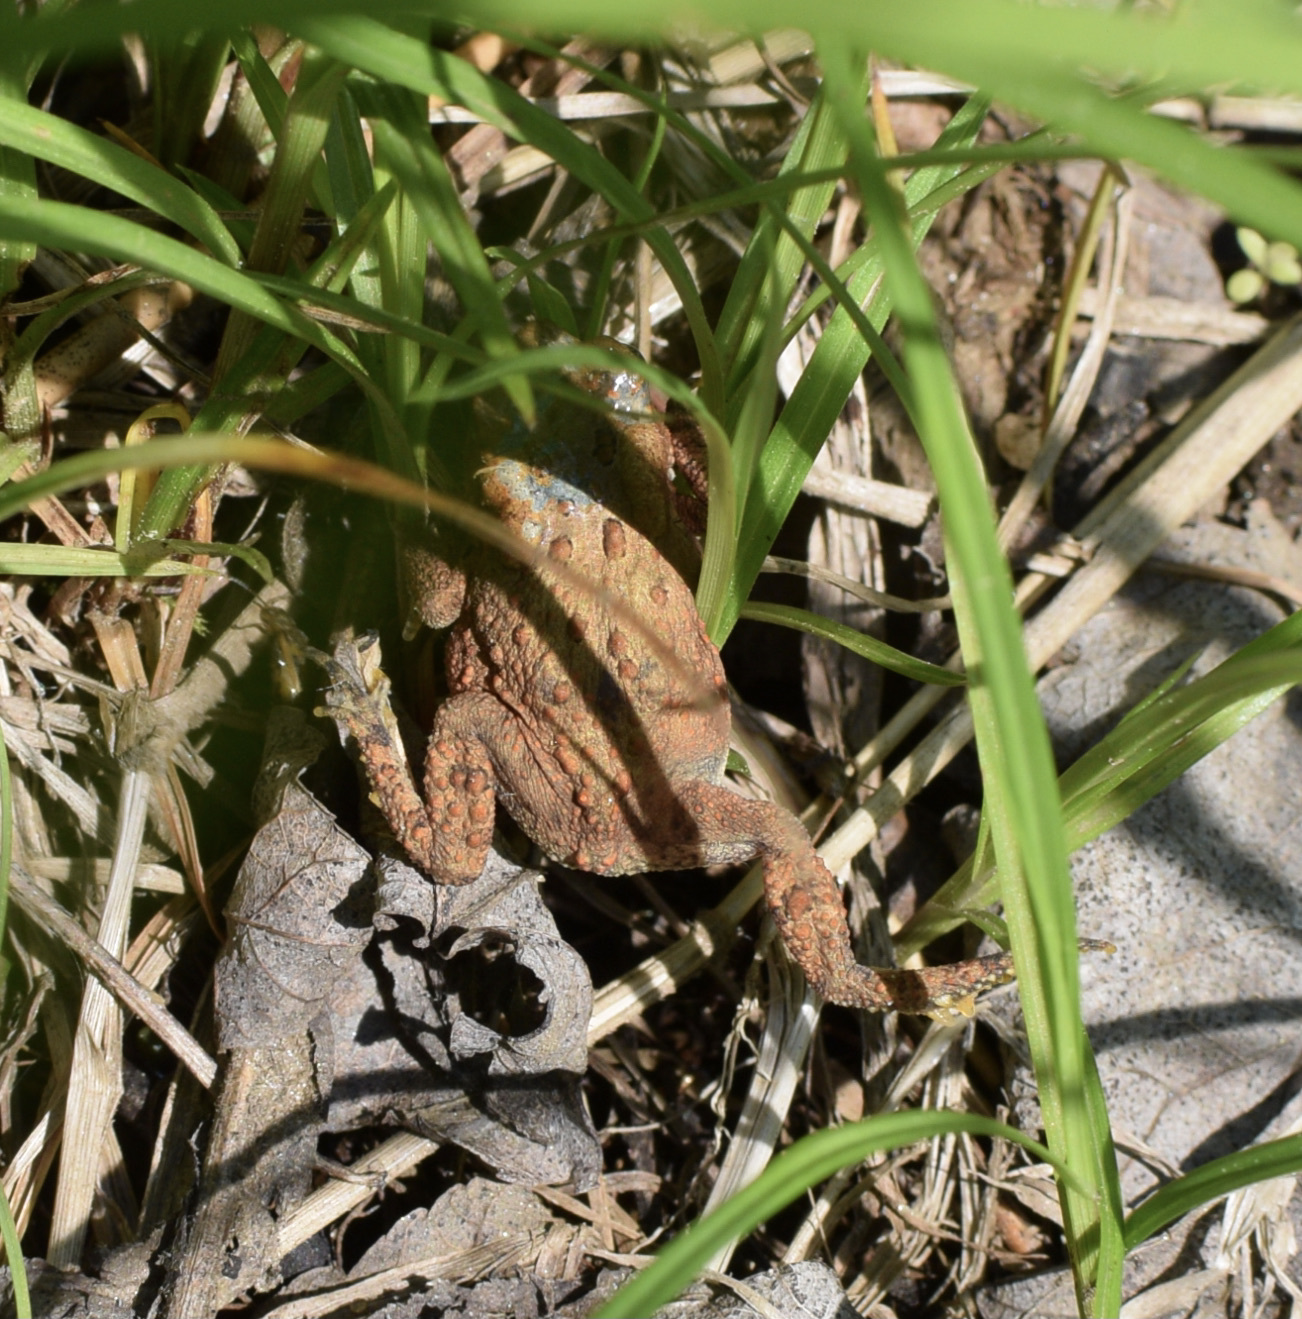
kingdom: Animalia
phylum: Chordata
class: Amphibia
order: Anura
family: Bufonidae
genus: Anaxyrus
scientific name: Anaxyrus americanus
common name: American toad
